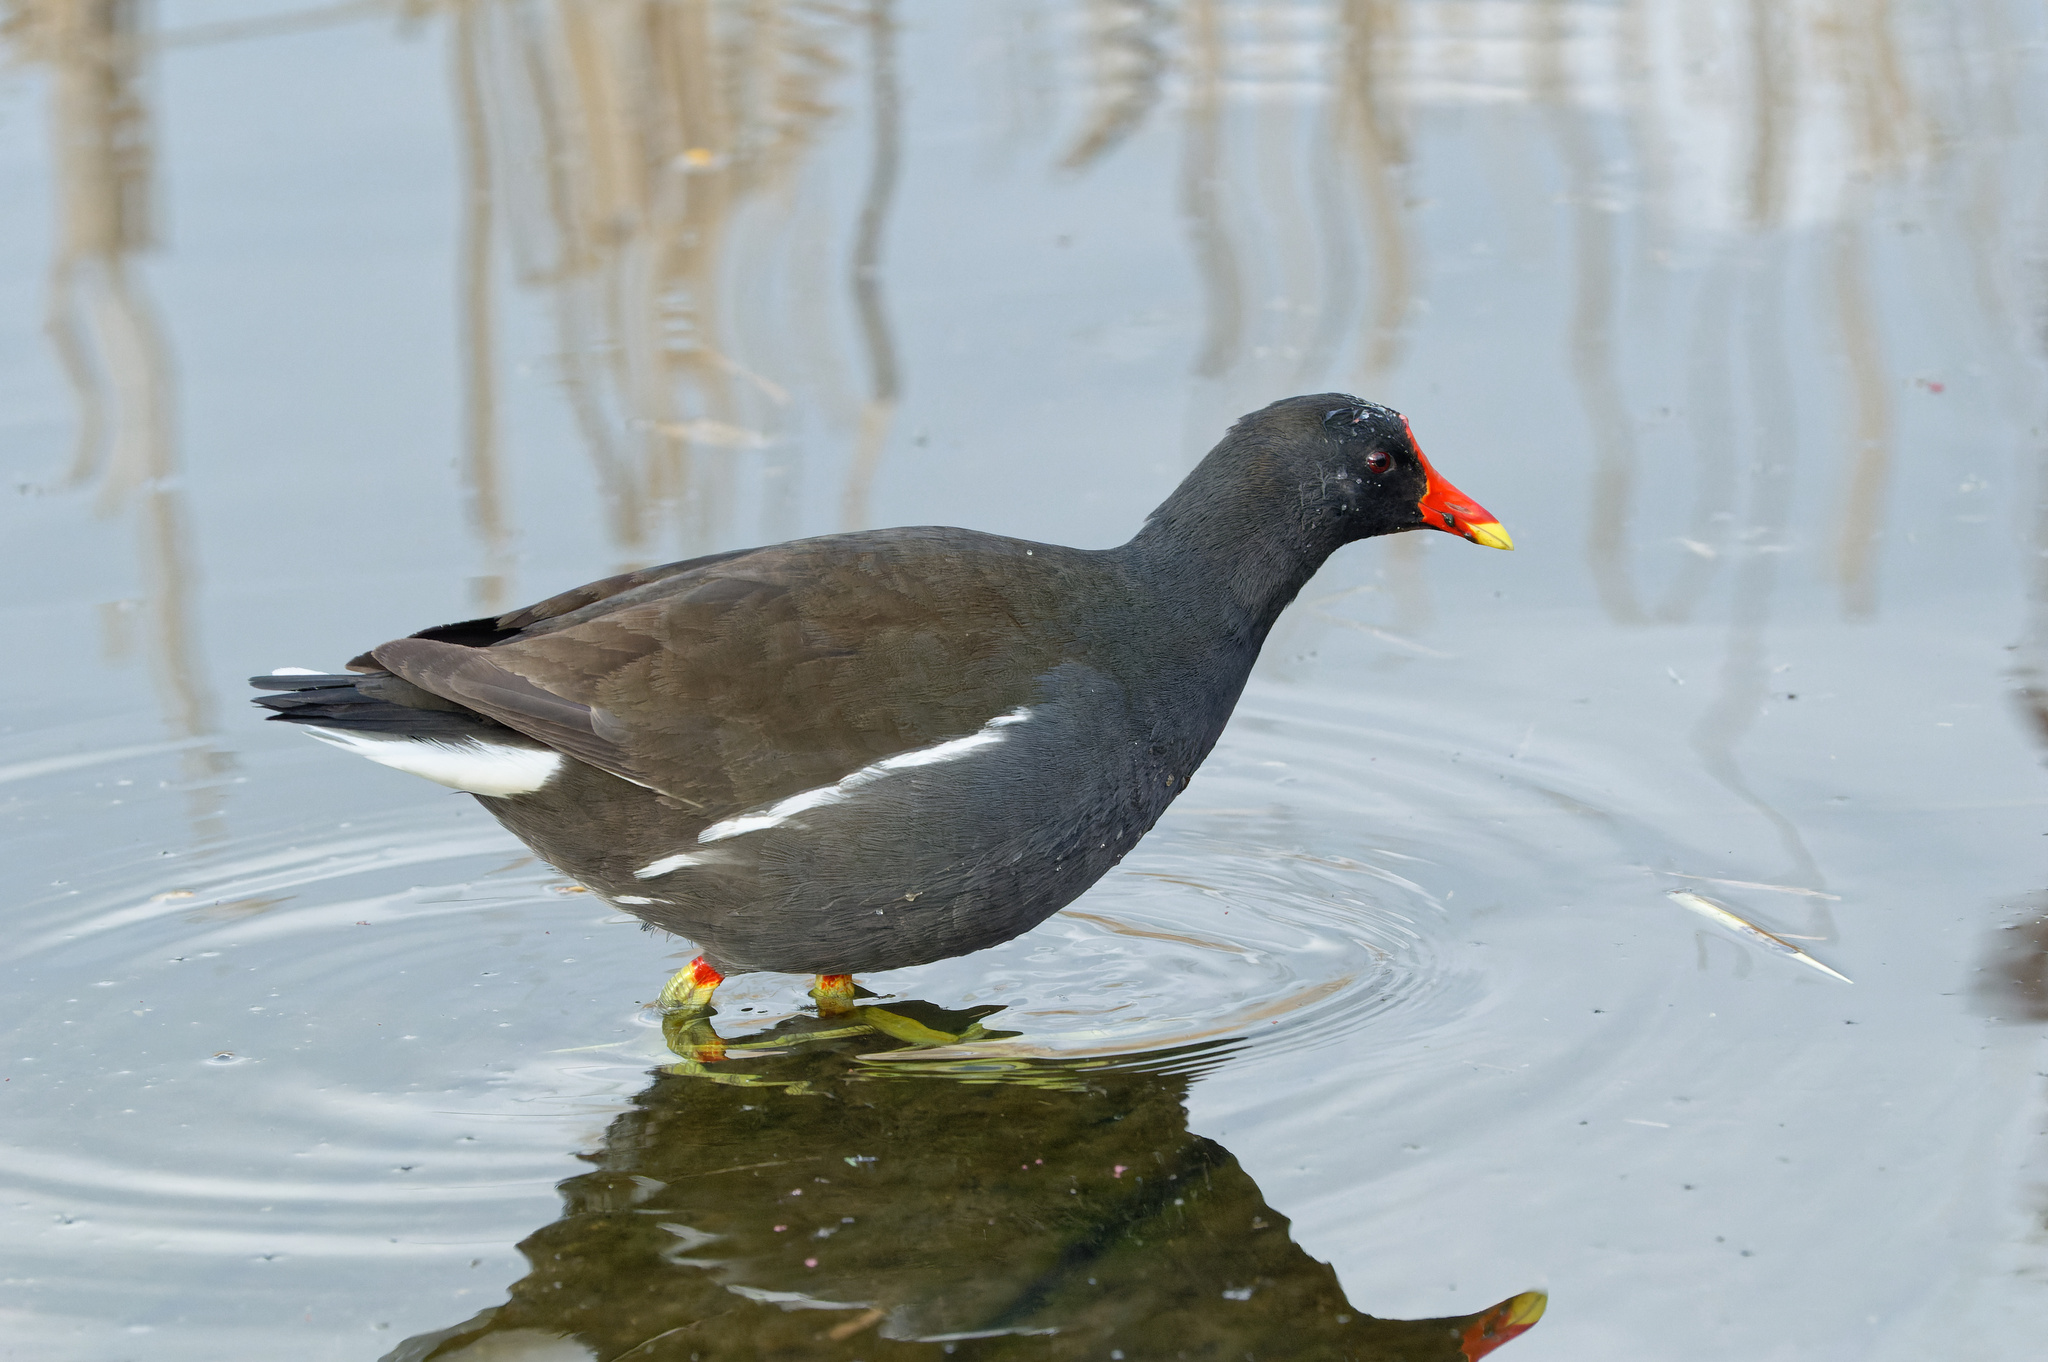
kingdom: Animalia
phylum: Chordata
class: Aves
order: Gruiformes
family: Rallidae
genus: Gallinula
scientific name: Gallinula chloropus
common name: Common moorhen
